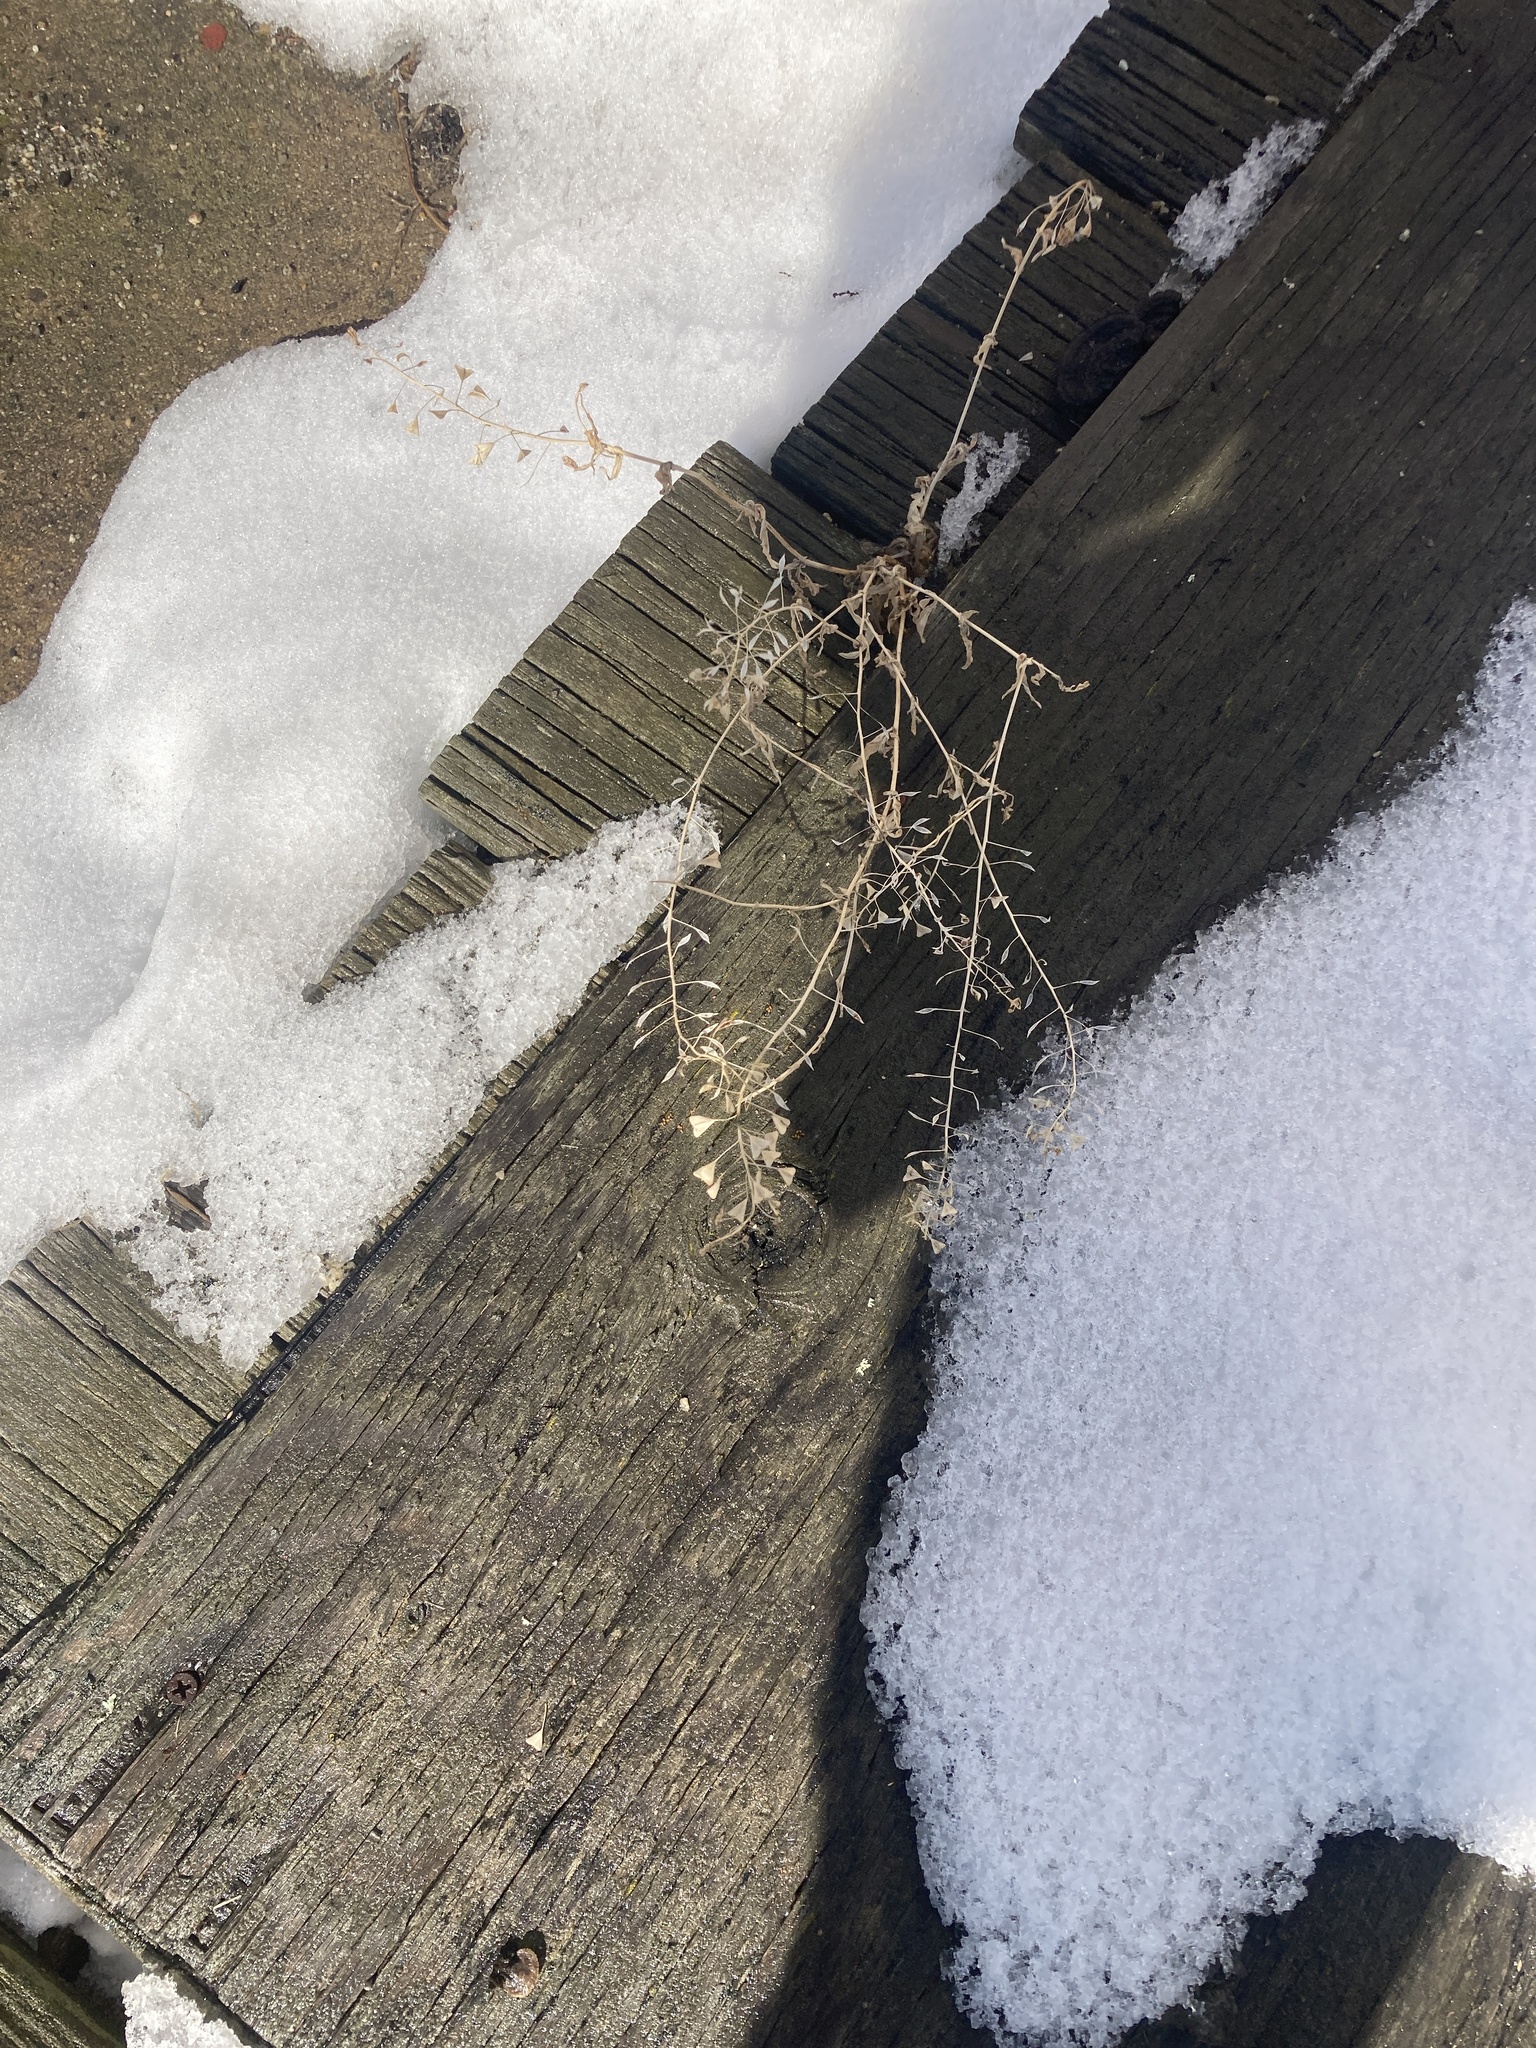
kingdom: Plantae
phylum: Tracheophyta
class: Magnoliopsida
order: Brassicales
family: Brassicaceae
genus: Capsella
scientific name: Capsella bursa-pastoris
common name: Shepherd's purse
